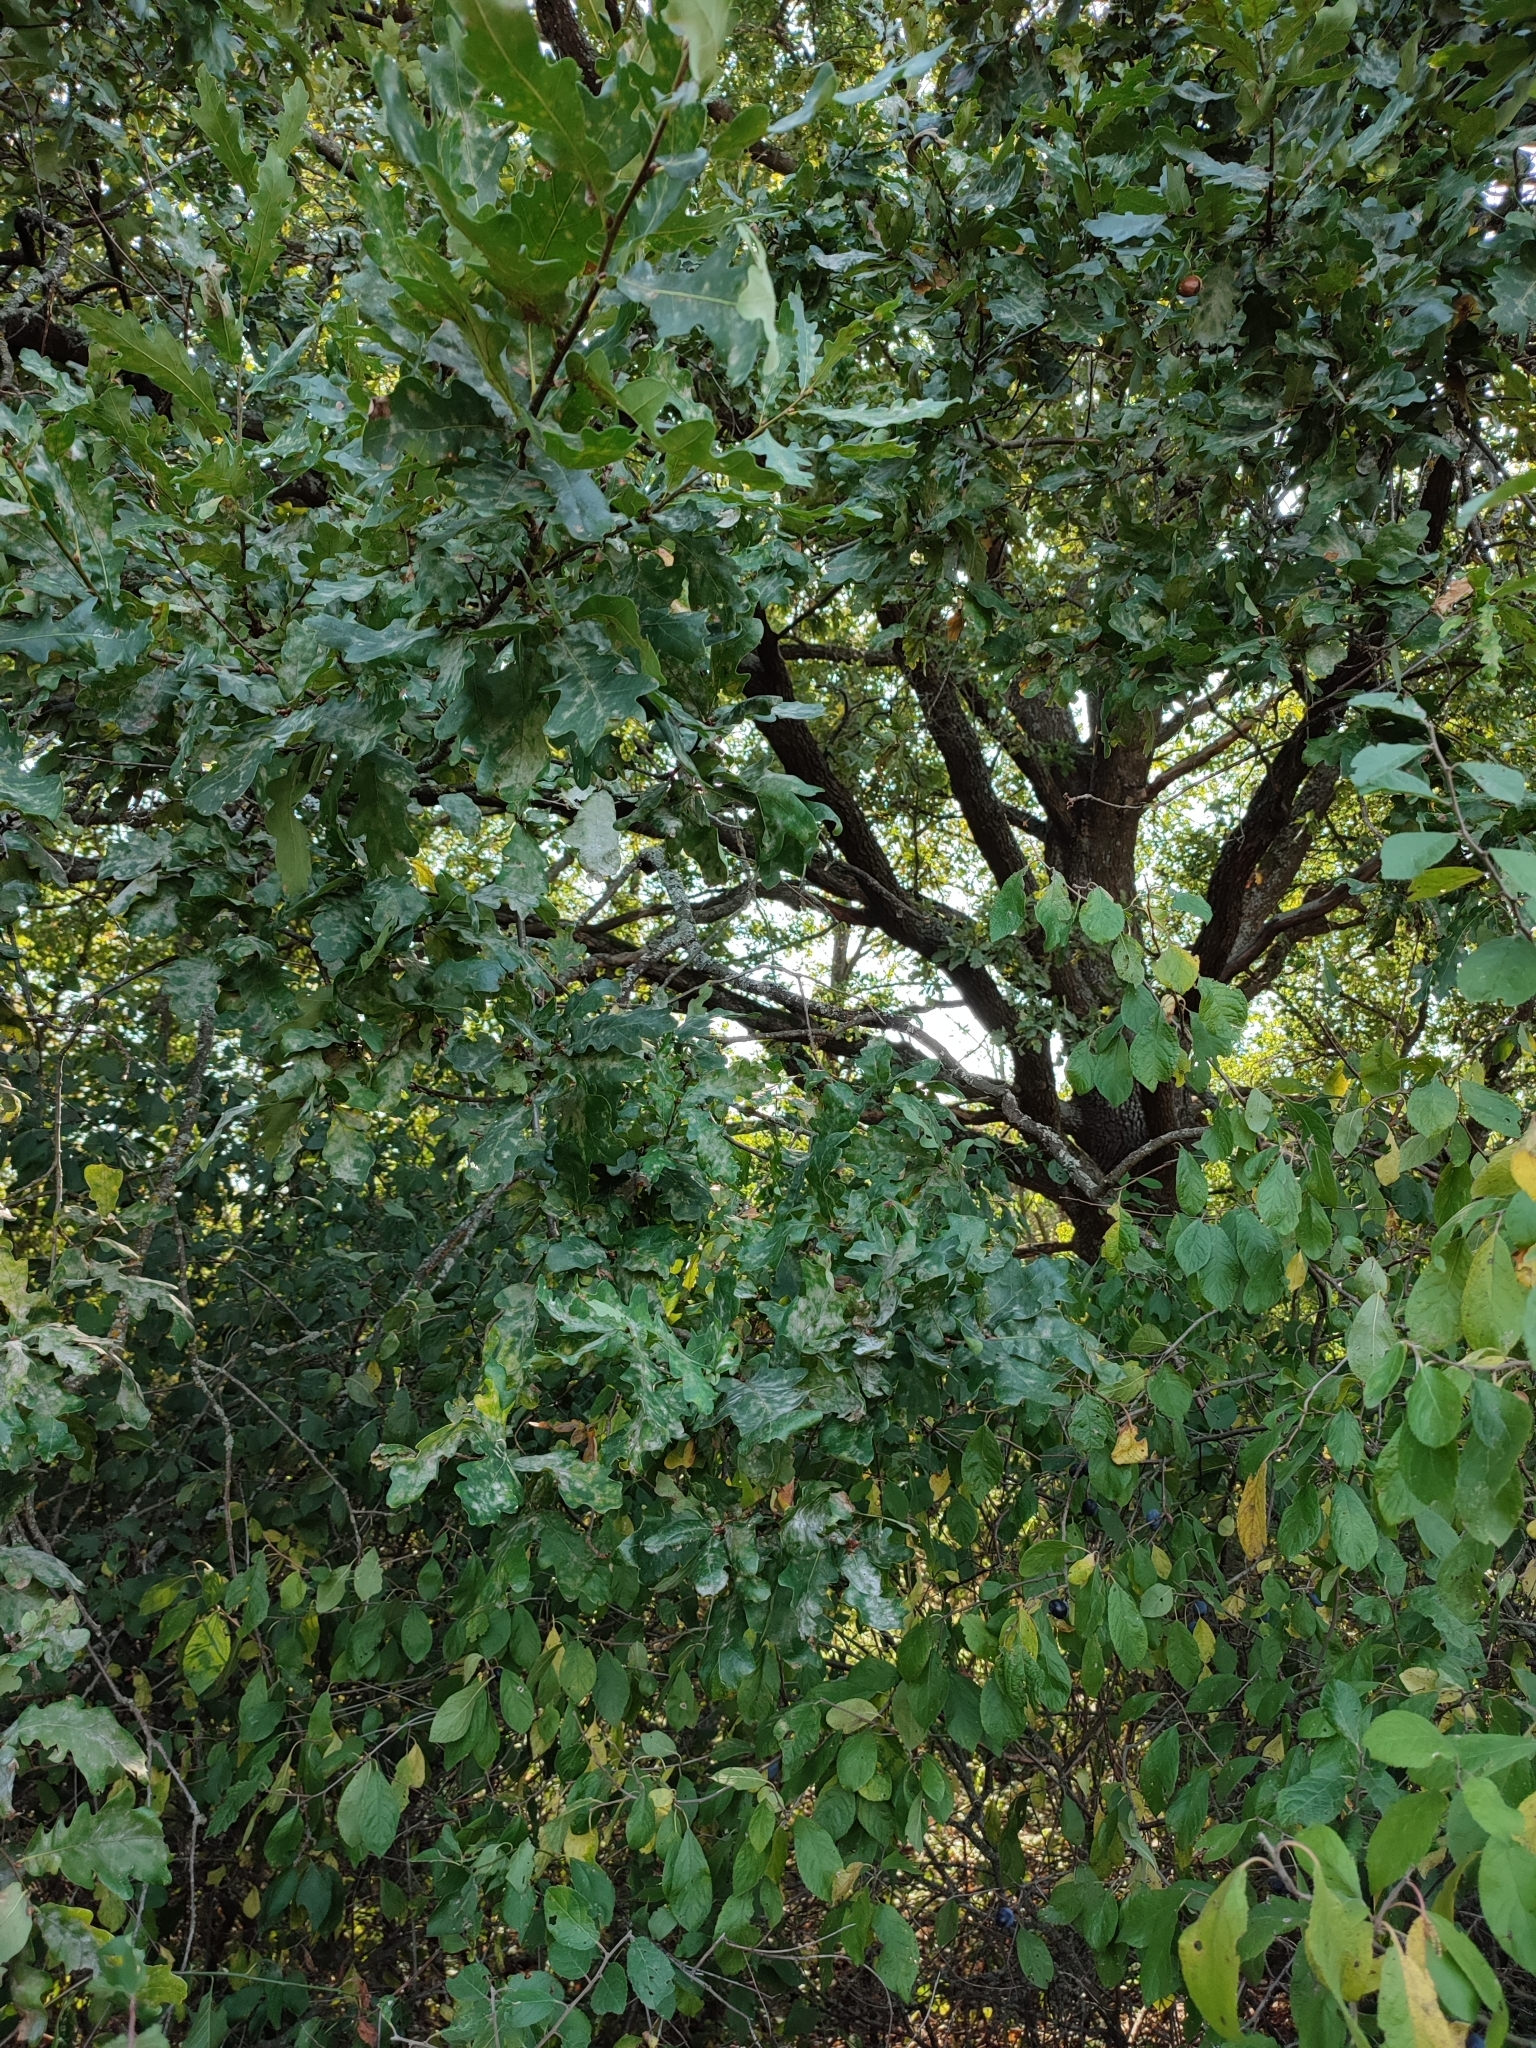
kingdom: Plantae
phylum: Tracheophyta
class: Magnoliopsida
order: Fagales
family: Fagaceae
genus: Quercus
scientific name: Quercus robur
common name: Pedunculate oak
